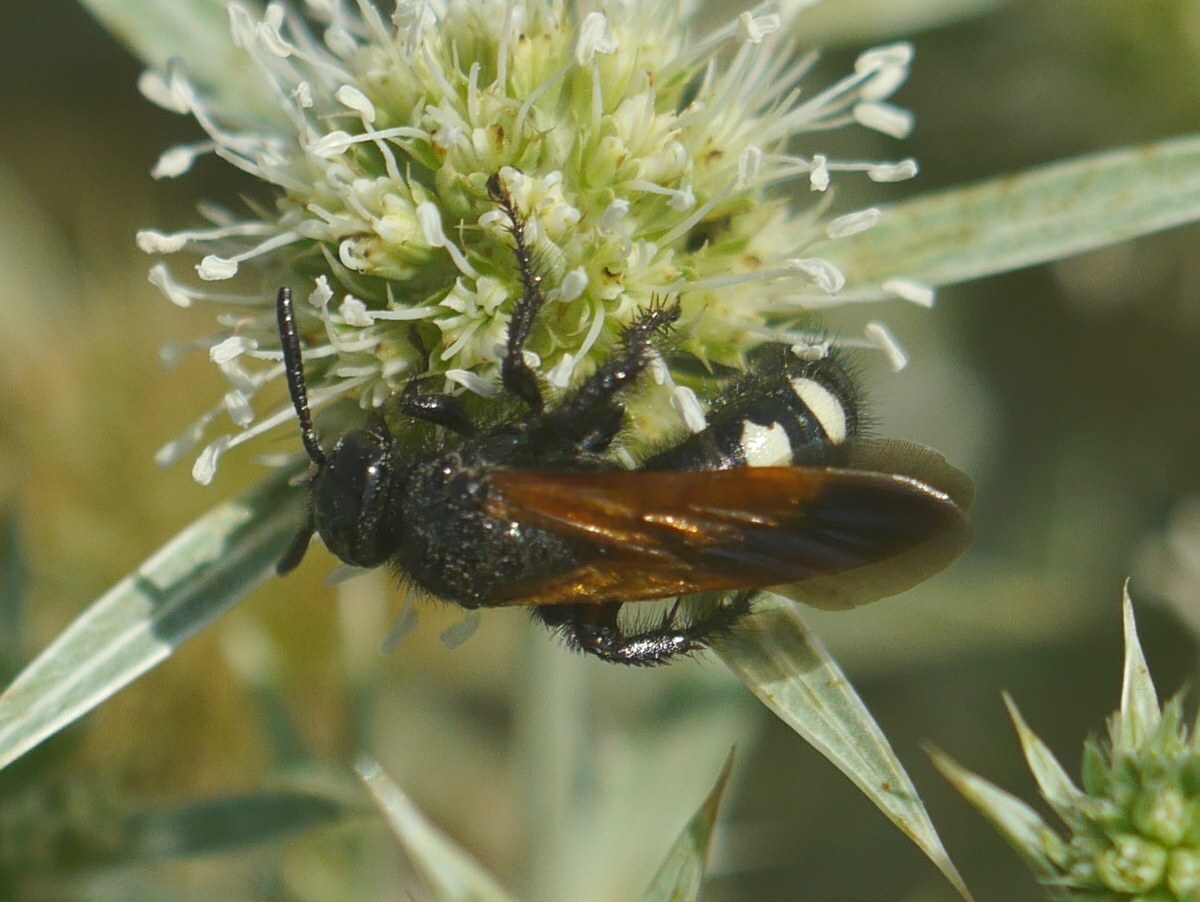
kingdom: Animalia
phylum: Arthropoda
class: Insecta
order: Hymenoptera
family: Vespidae
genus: Vespa
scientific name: Vespa sexmaculata
